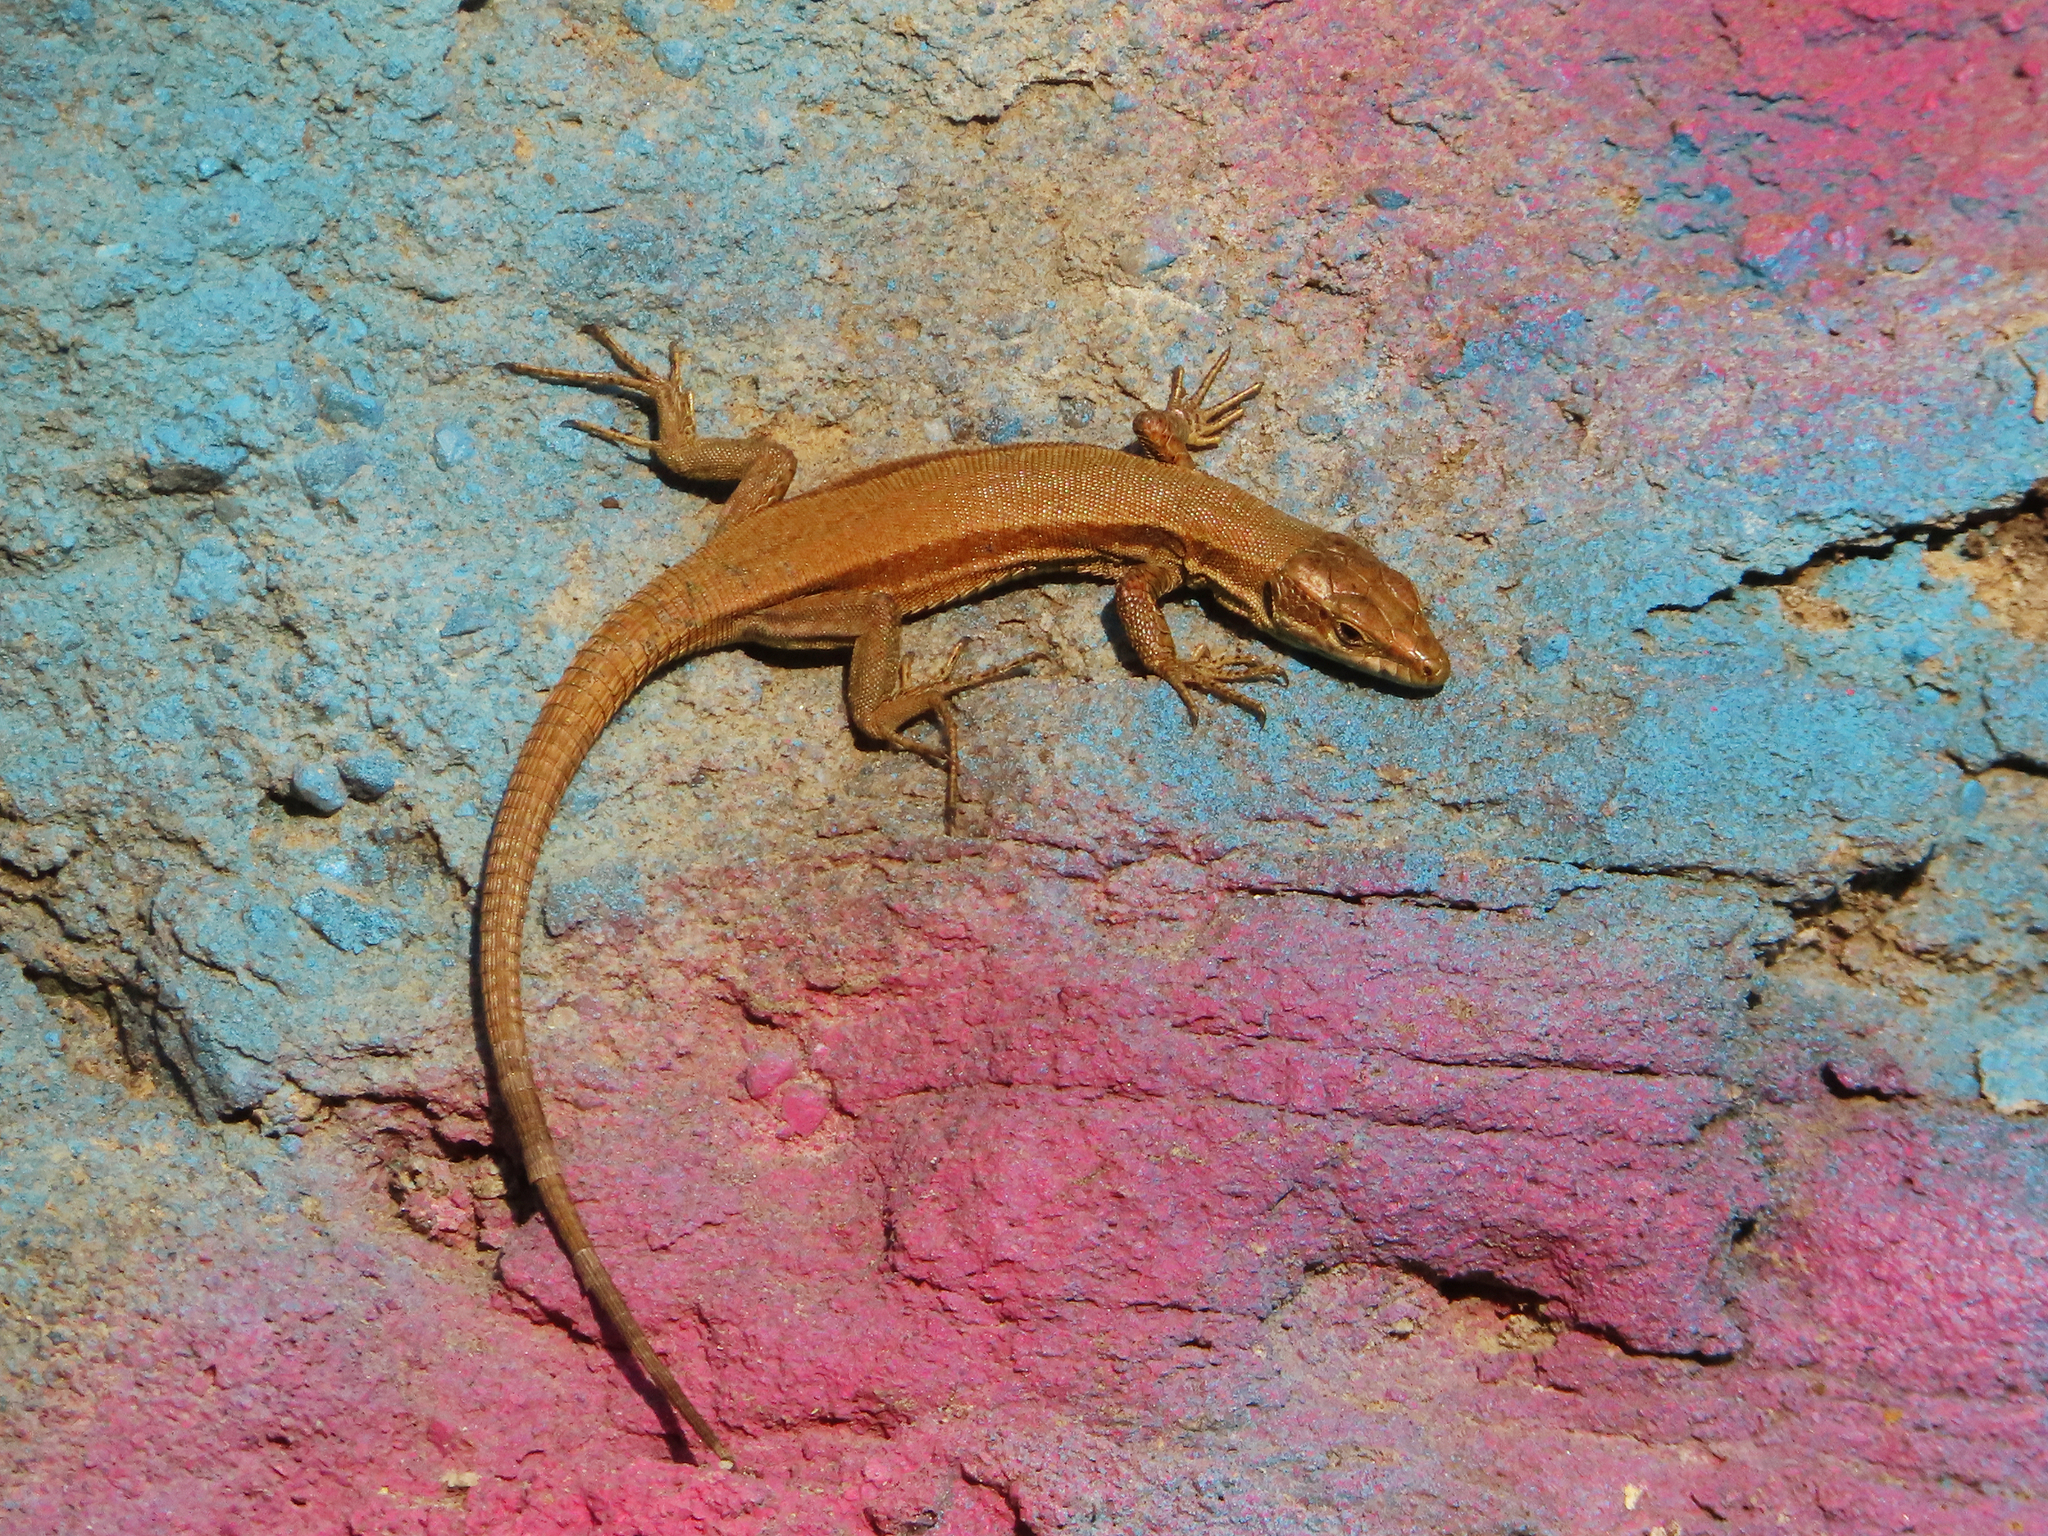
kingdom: Animalia
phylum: Chordata
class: Squamata
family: Lacertidae
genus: Podarcis
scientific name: Podarcis muralis
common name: Common wall lizard
